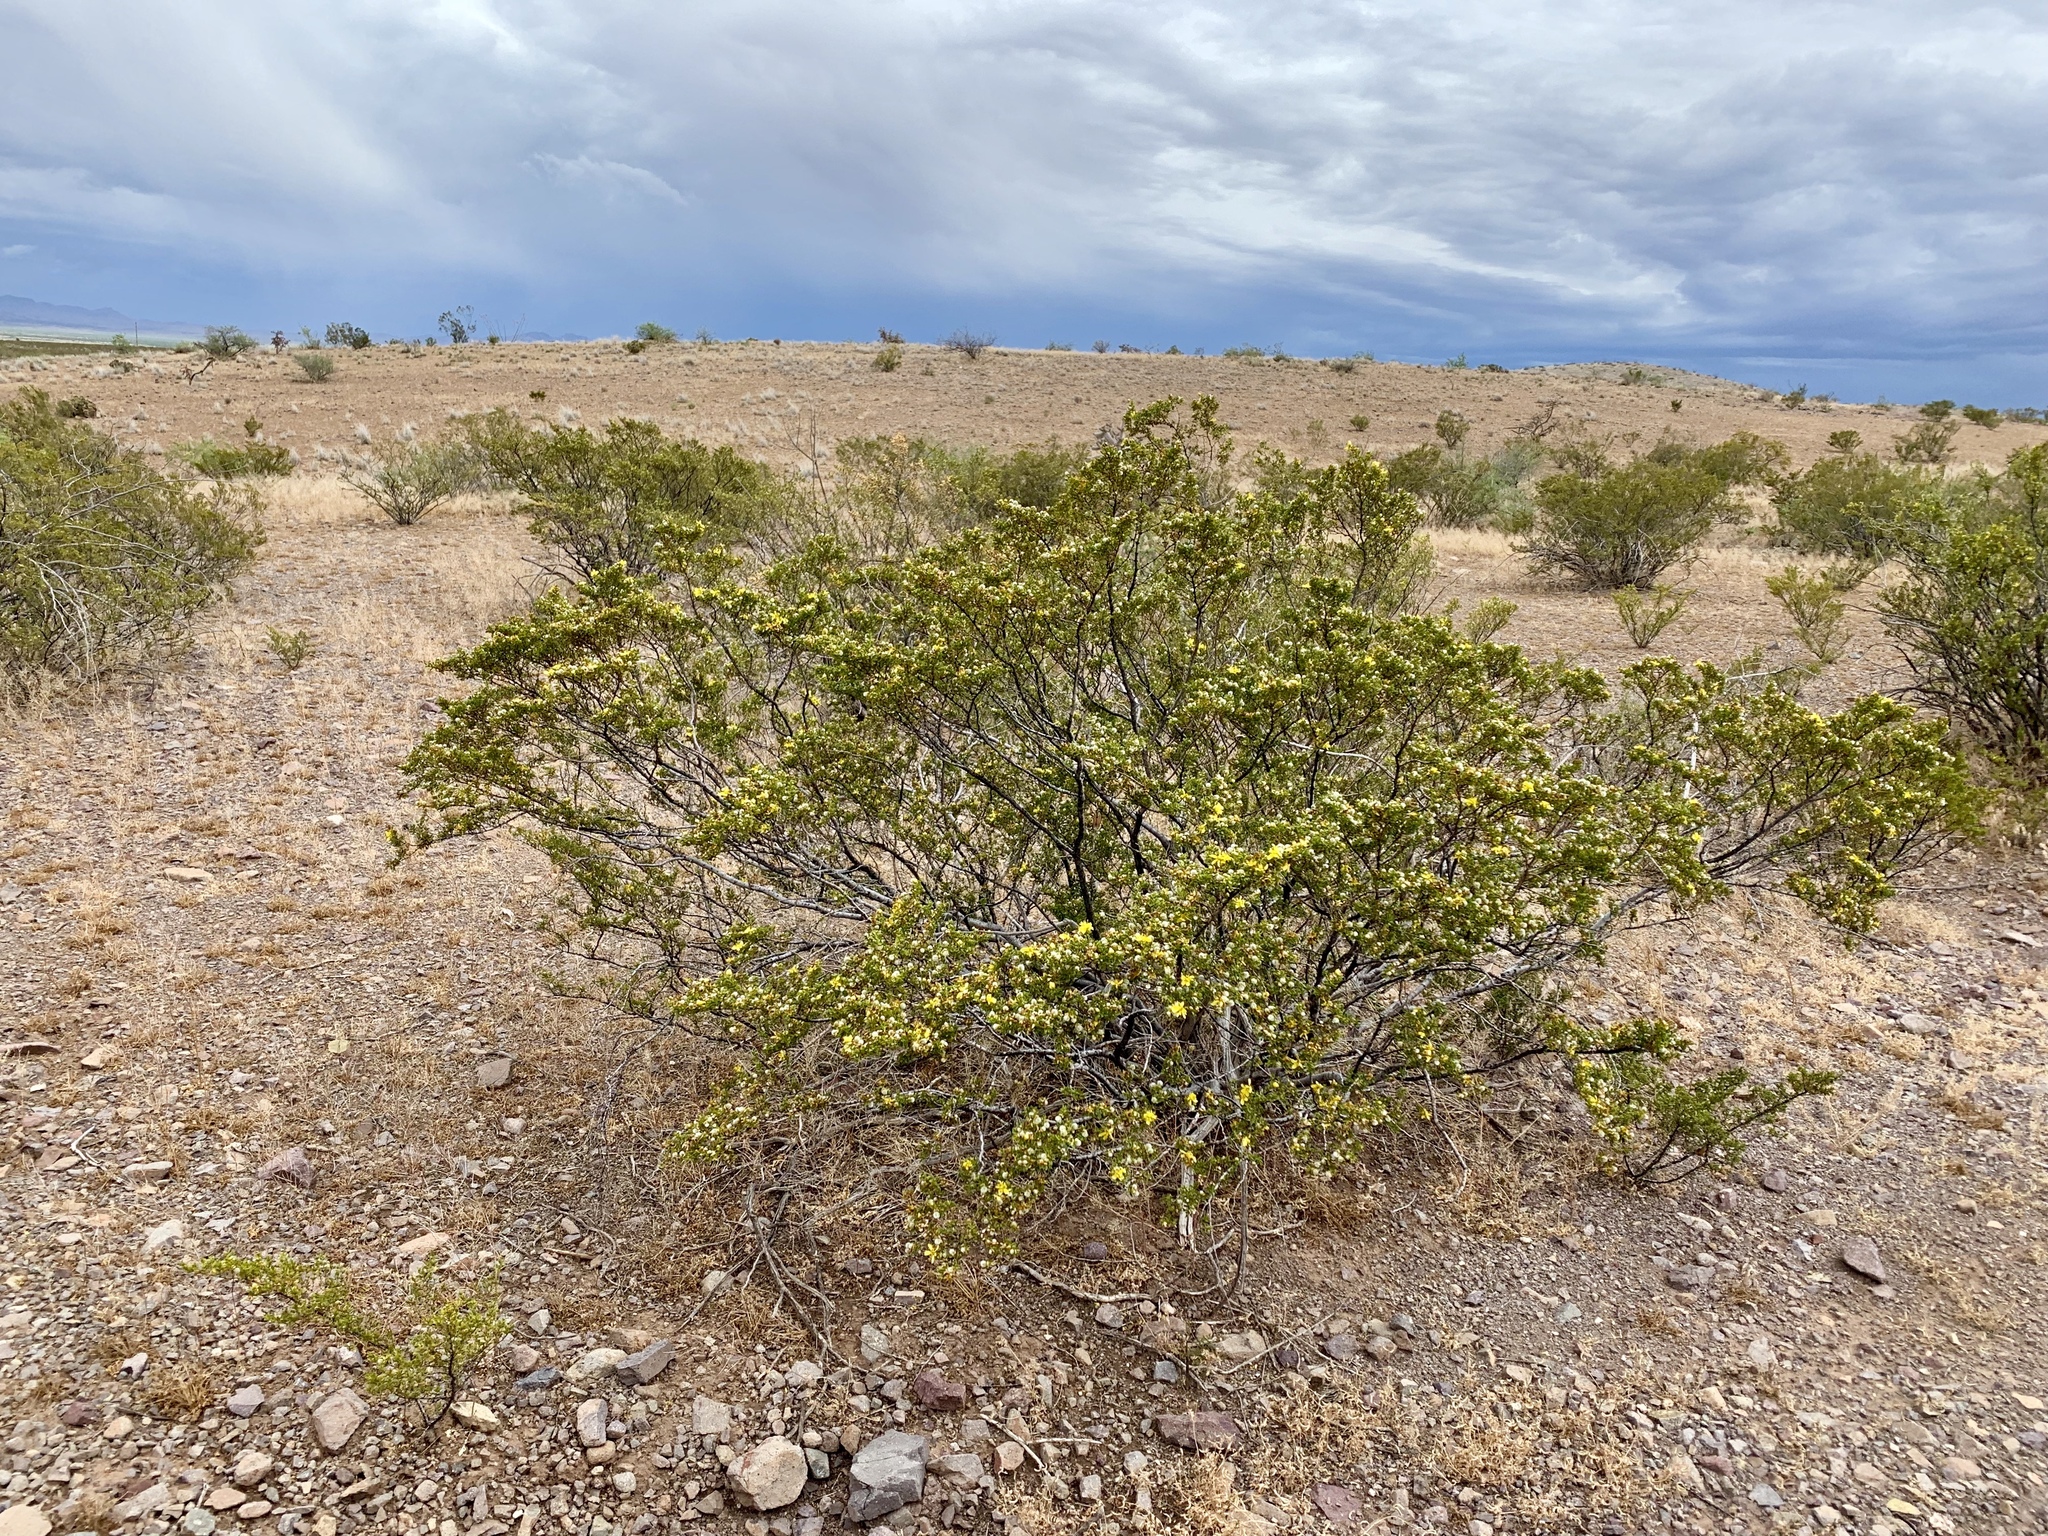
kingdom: Plantae
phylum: Tracheophyta
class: Magnoliopsida
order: Zygophyllales
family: Zygophyllaceae
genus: Larrea
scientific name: Larrea tridentata
